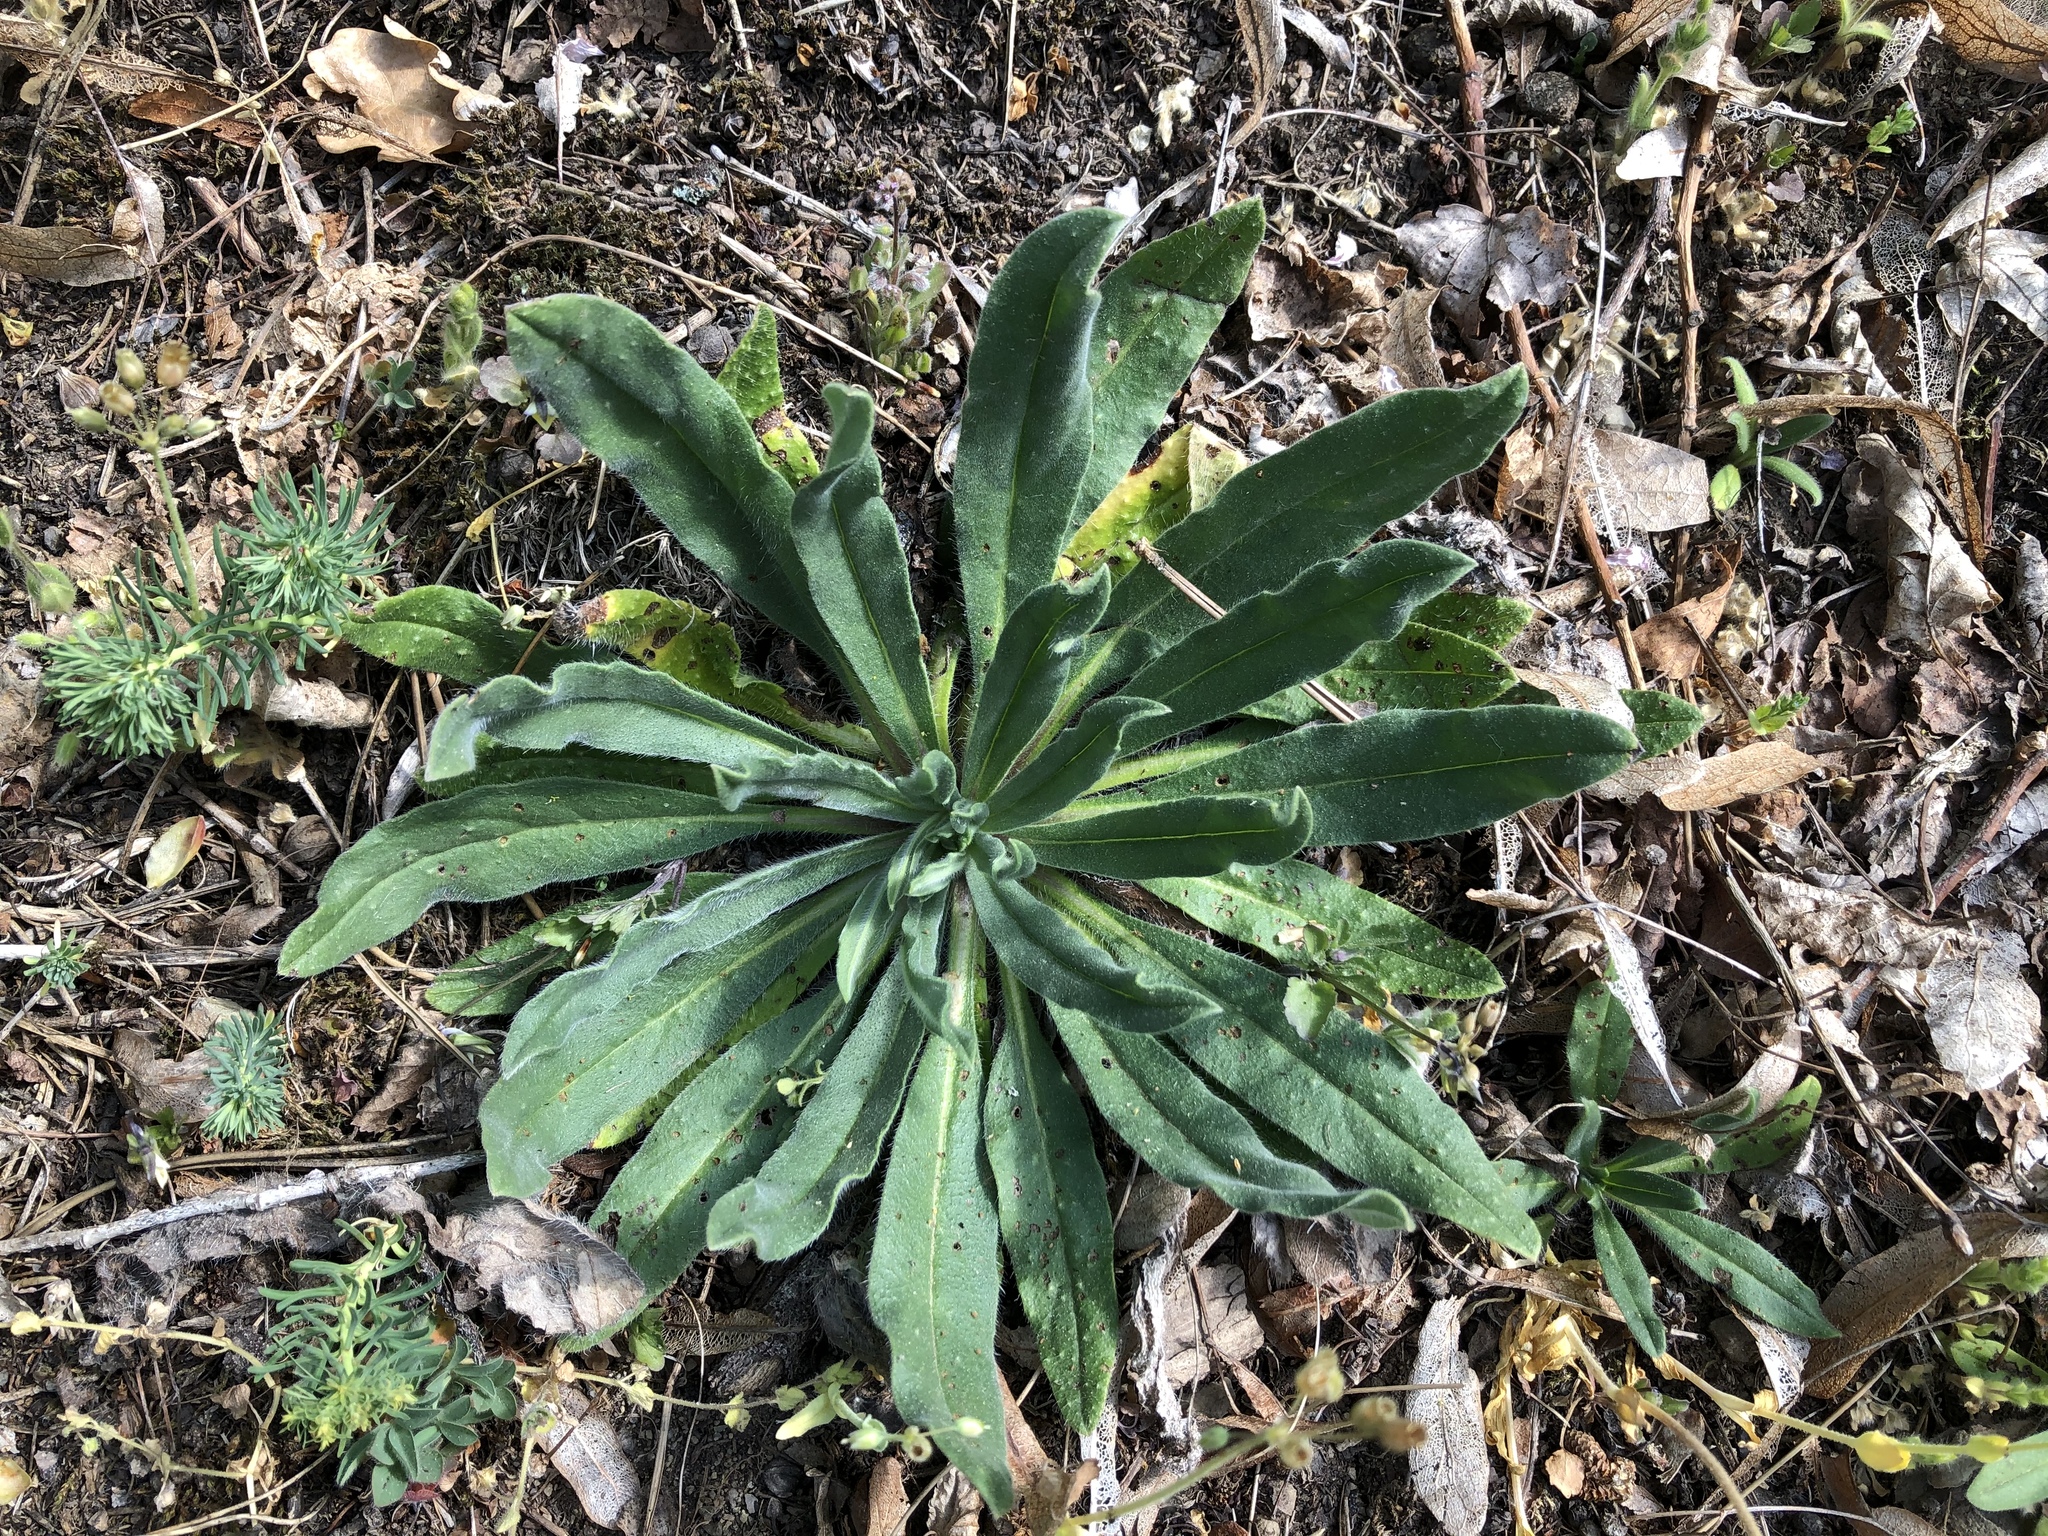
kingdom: Plantae
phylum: Tracheophyta
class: Magnoliopsida
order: Boraginales
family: Boraginaceae
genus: Echium
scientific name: Echium vulgare
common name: Common viper's bugloss
